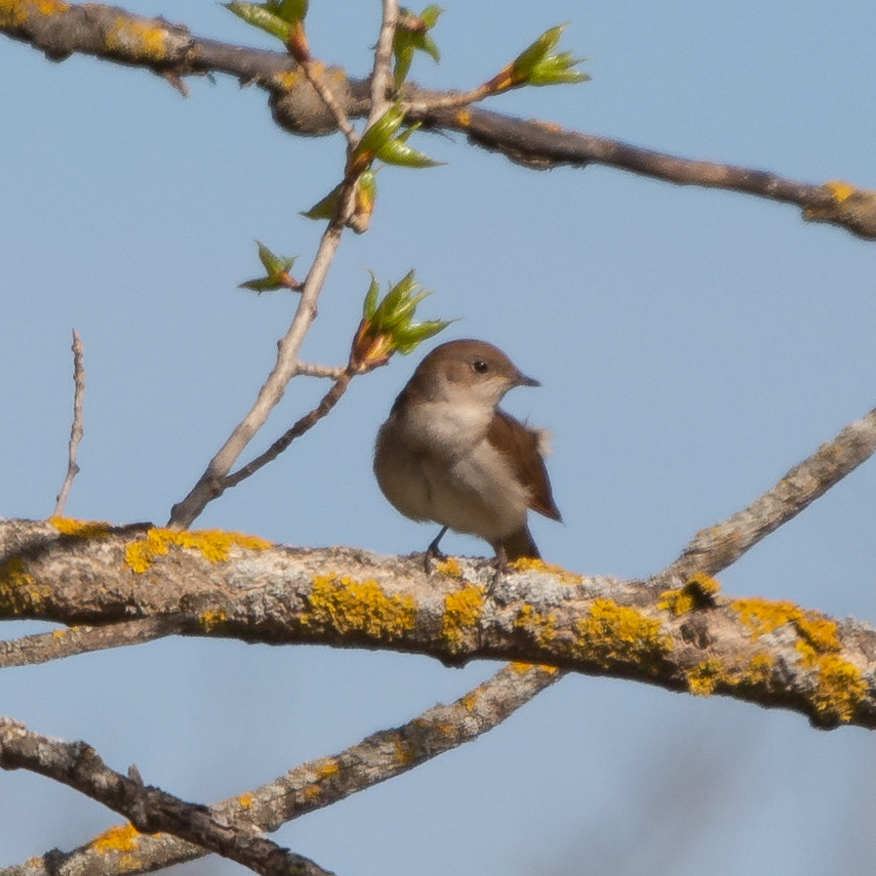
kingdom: Animalia
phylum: Chordata
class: Aves
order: Passeriformes
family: Muscicapidae
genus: Luscinia
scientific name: Luscinia megarhynchos
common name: Common nightingale
